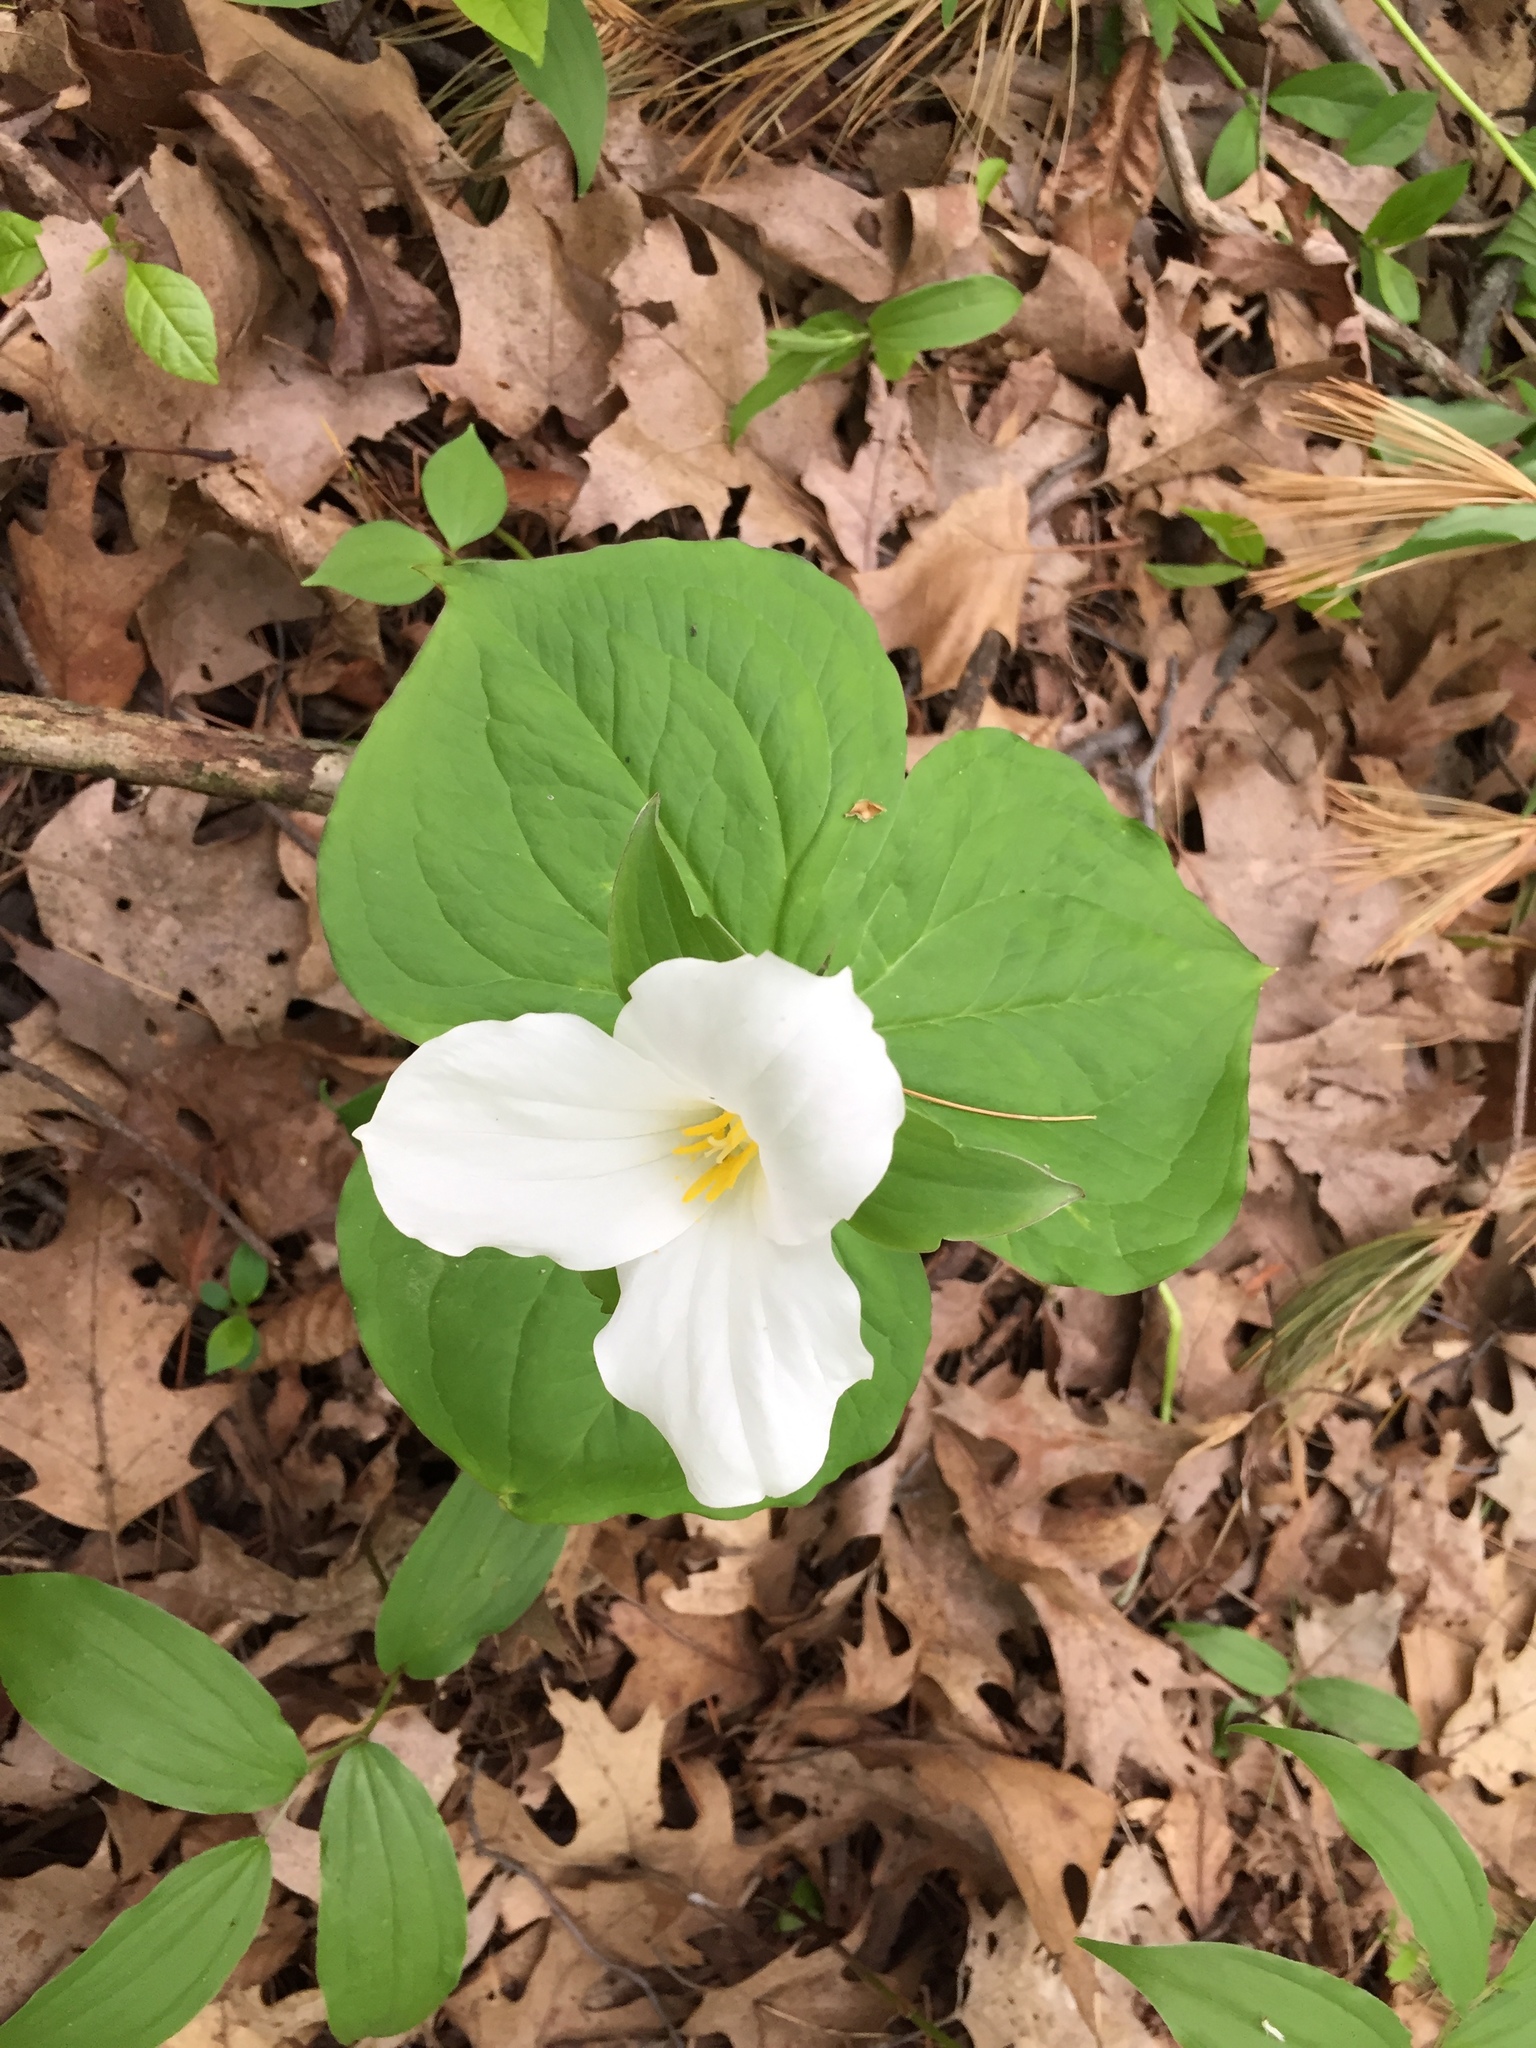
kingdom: Plantae
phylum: Tracheophyta
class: Liliopsida
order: Liliales
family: Melanthiaceae
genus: Trillium
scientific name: Trillium grandiflorum
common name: Great white trillium
